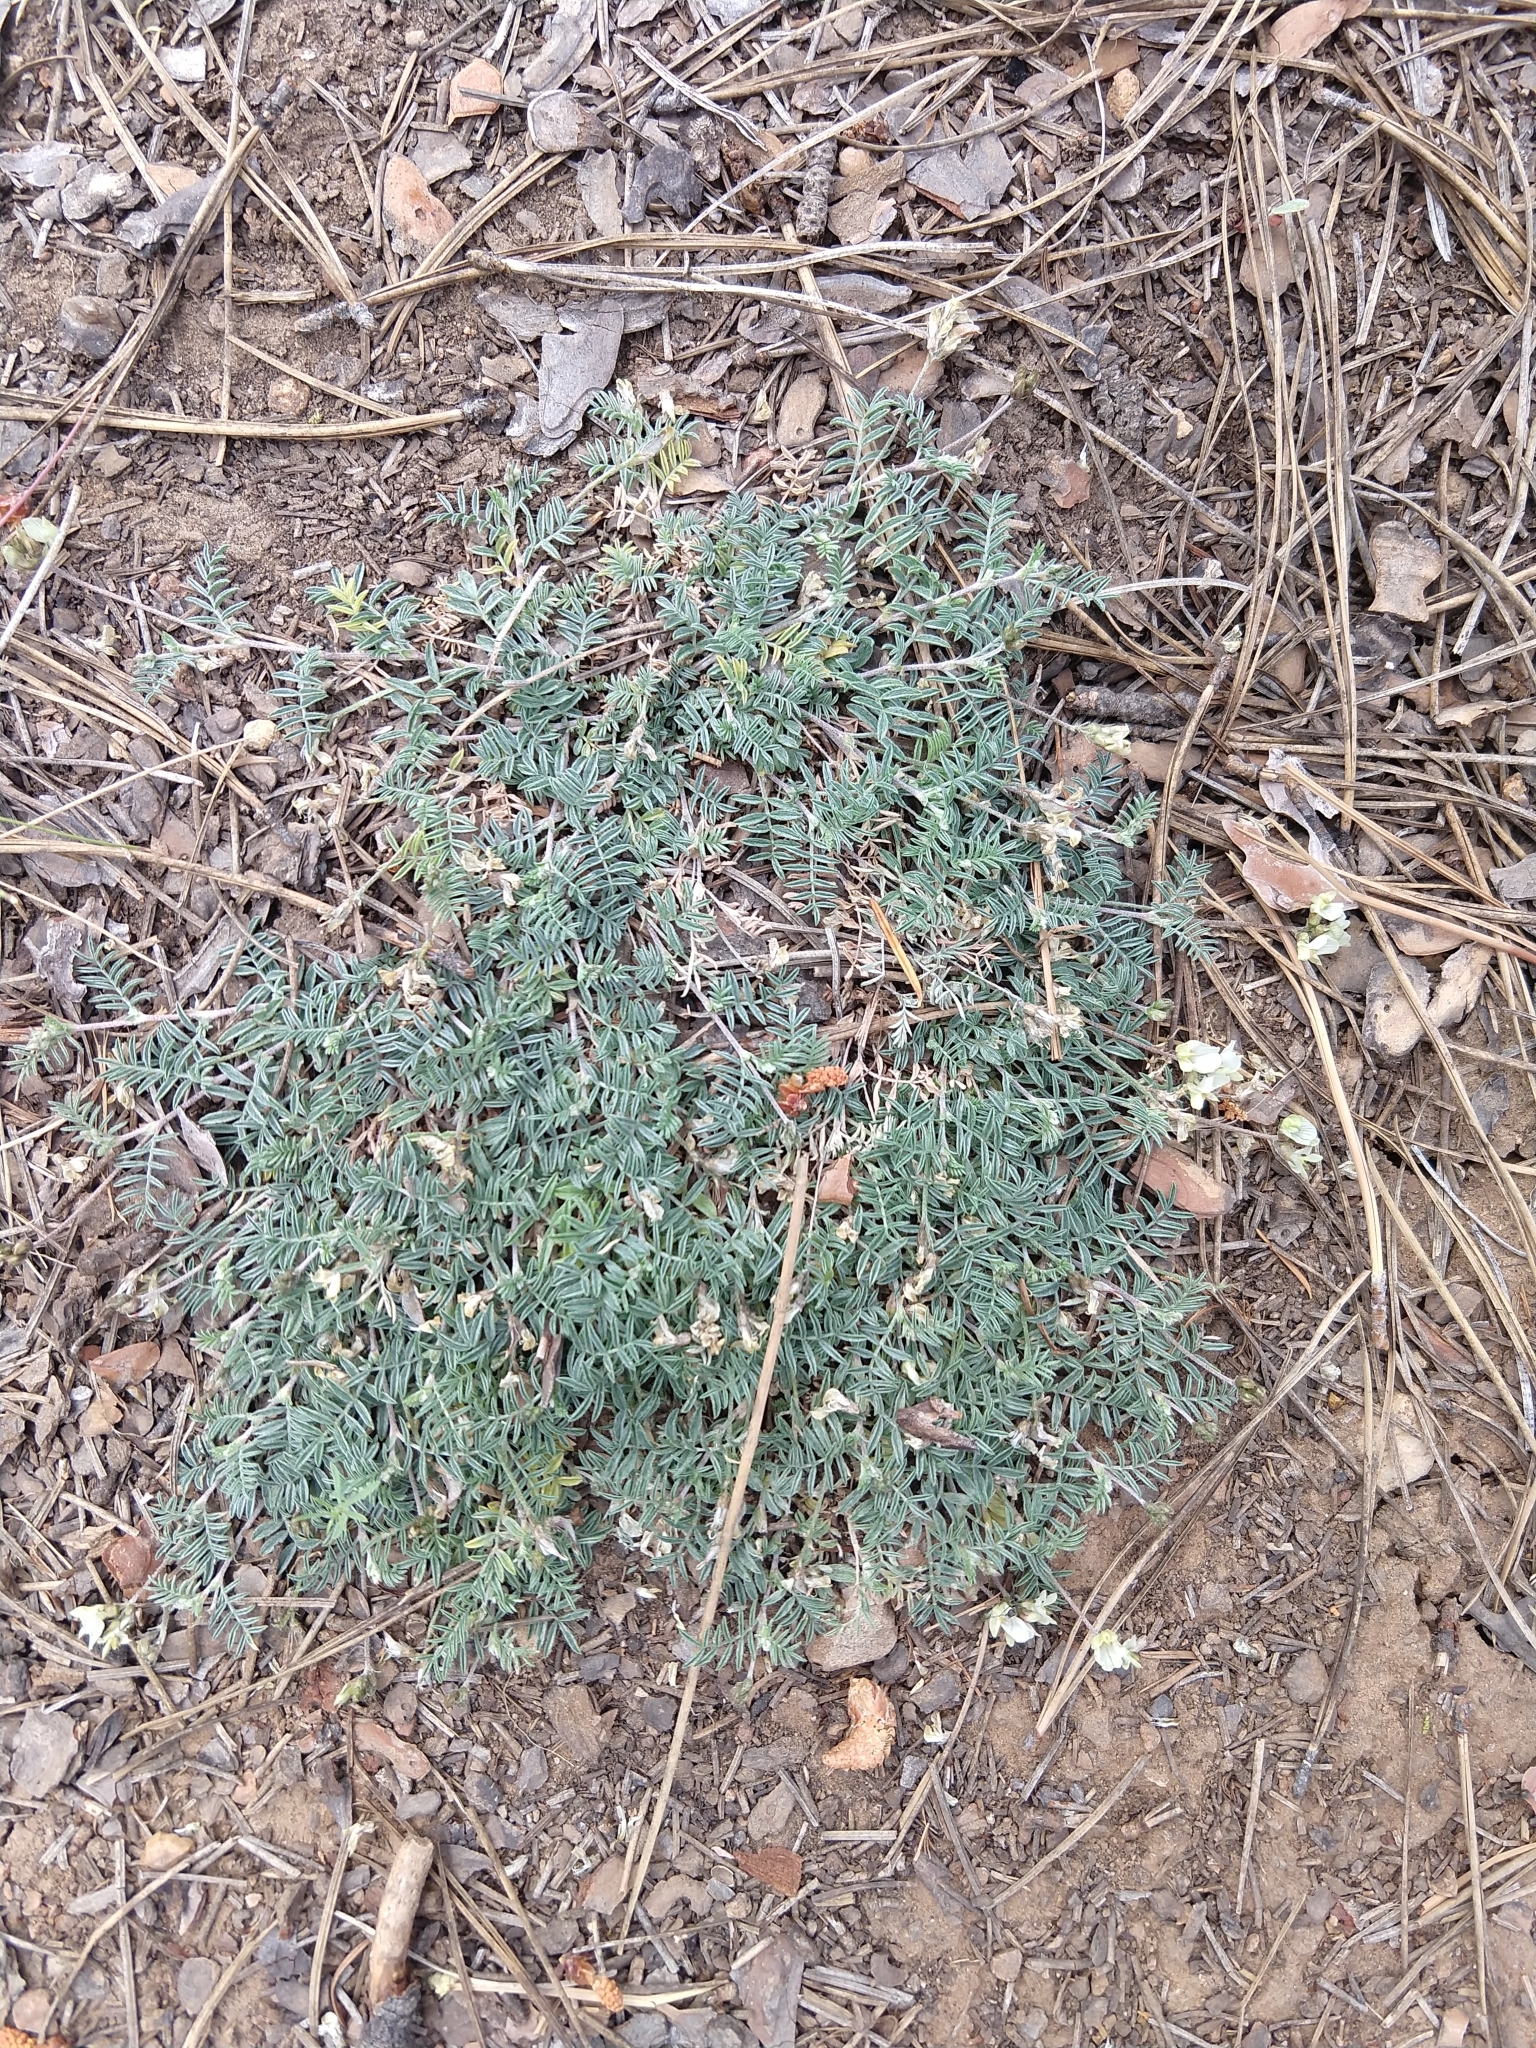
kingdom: Plantae
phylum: Tracheophyta
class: Magnoliopsida
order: Fabales
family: Fabaceae
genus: Astragalus
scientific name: Astragalus humistratus
